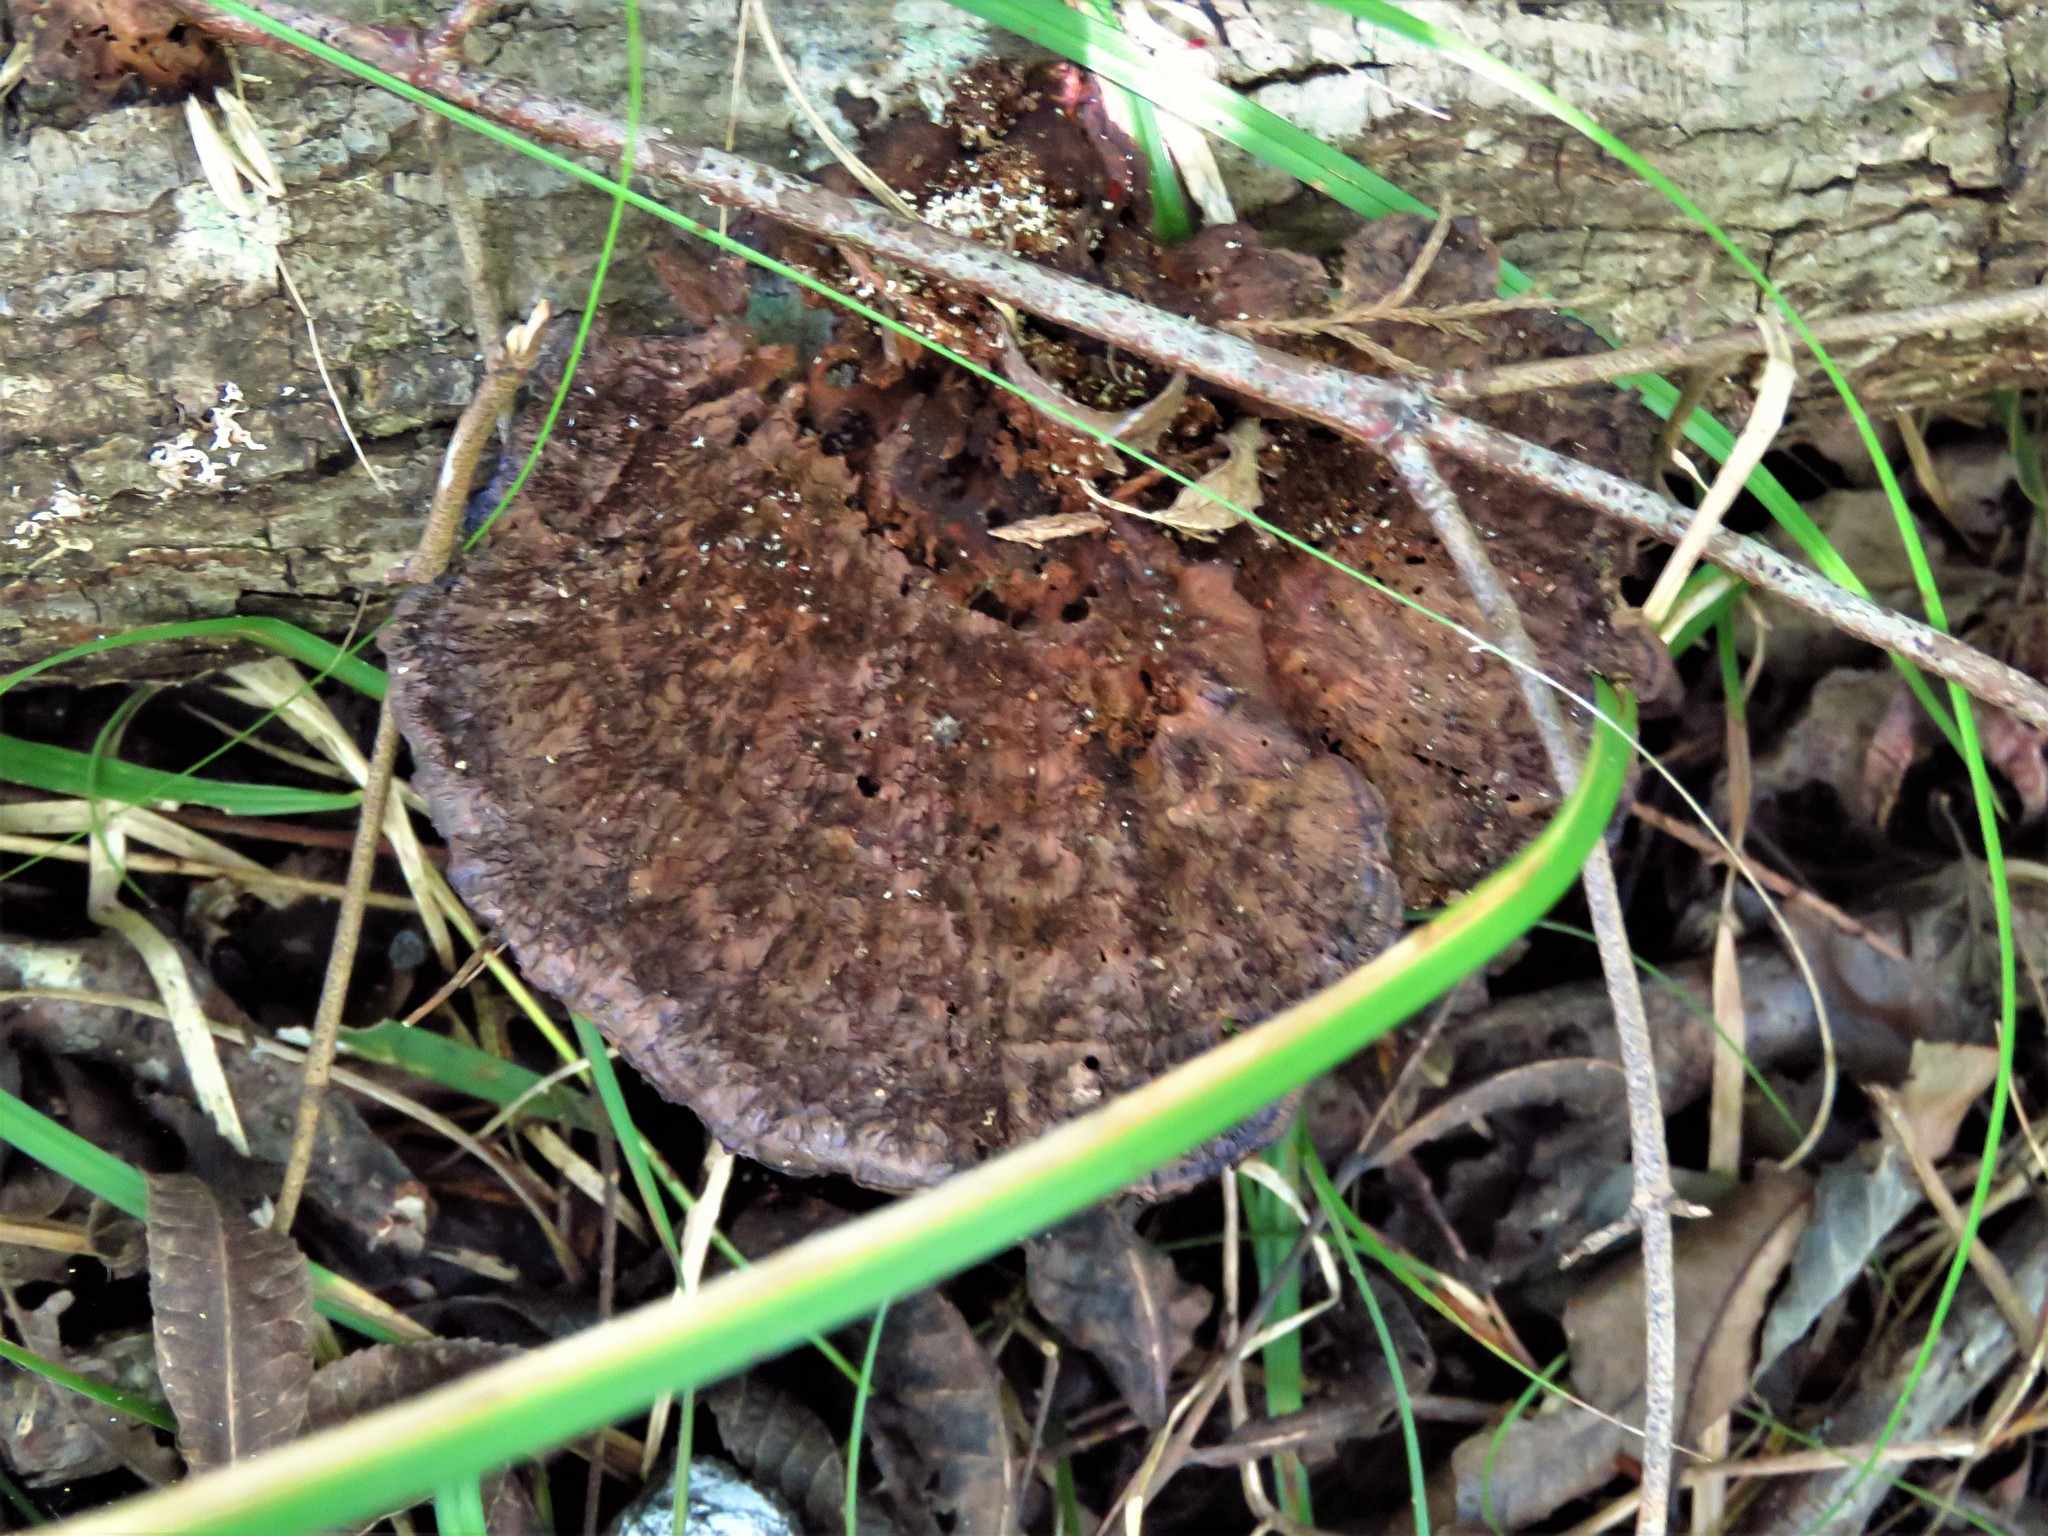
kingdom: Fungi
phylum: Basidiomycota
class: Agaricomycetes
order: Polyporales
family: Cerrenaceae
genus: Cerrena
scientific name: Cerrena hydnoides
